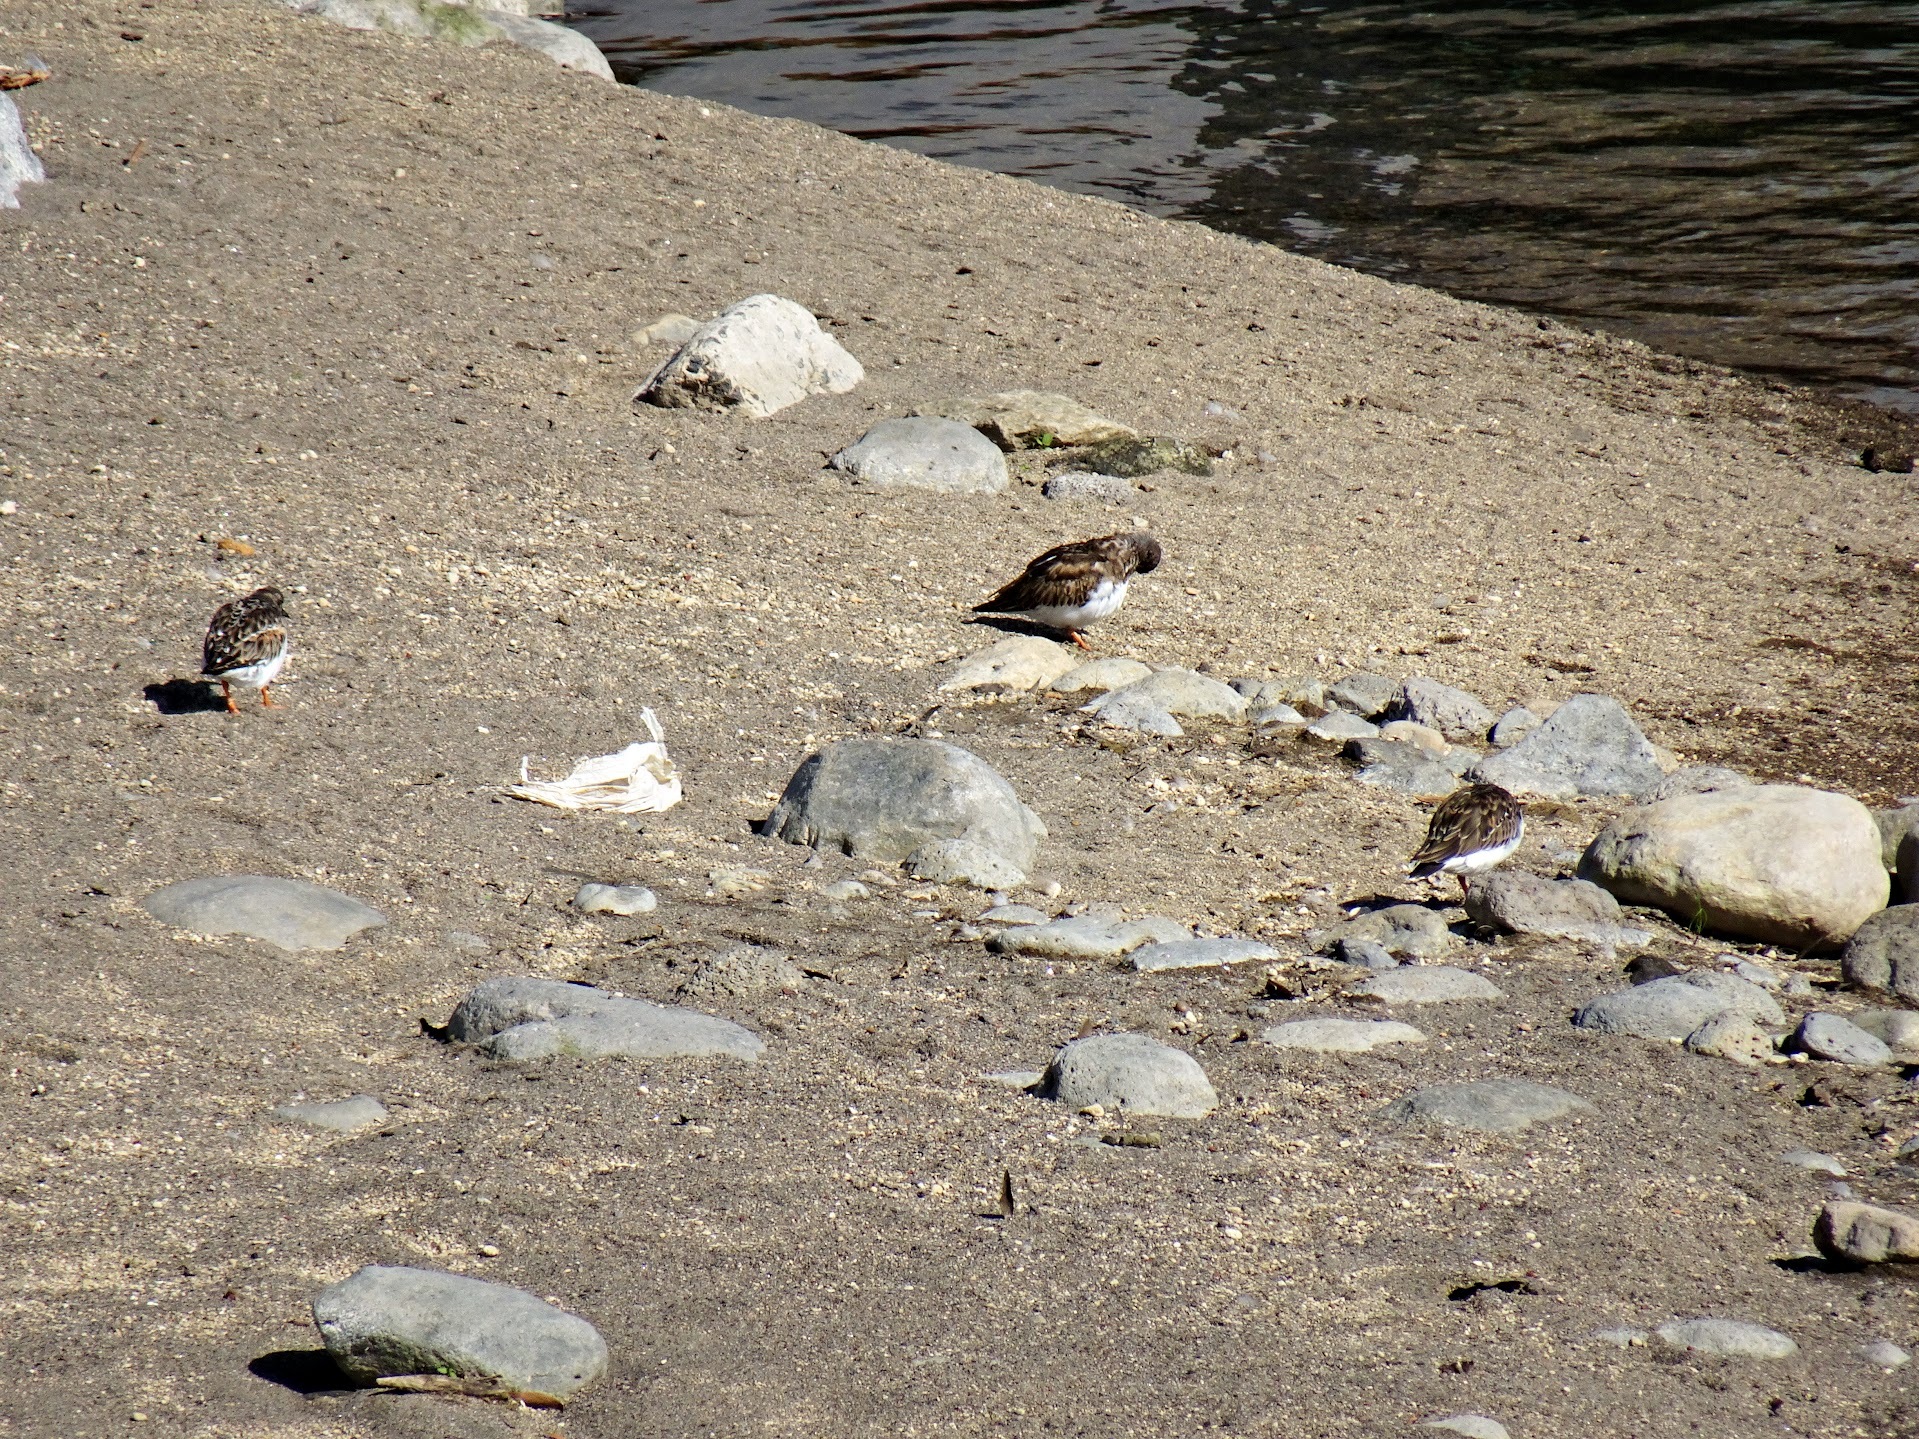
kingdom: Animalia
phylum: Chordata
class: Aves
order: Charadriiformes
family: Scolopacidae
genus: Arenaria
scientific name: Arenaria interpres
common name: Ruddy turnstone
